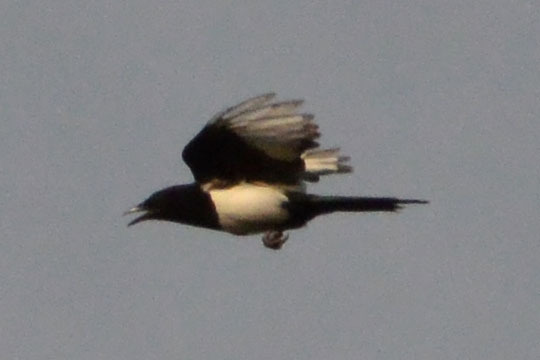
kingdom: Animalia
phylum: Chordata
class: Aves
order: Passeriformes
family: Corvidae
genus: Pica
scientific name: Pica pica
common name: Eurasian magpie
